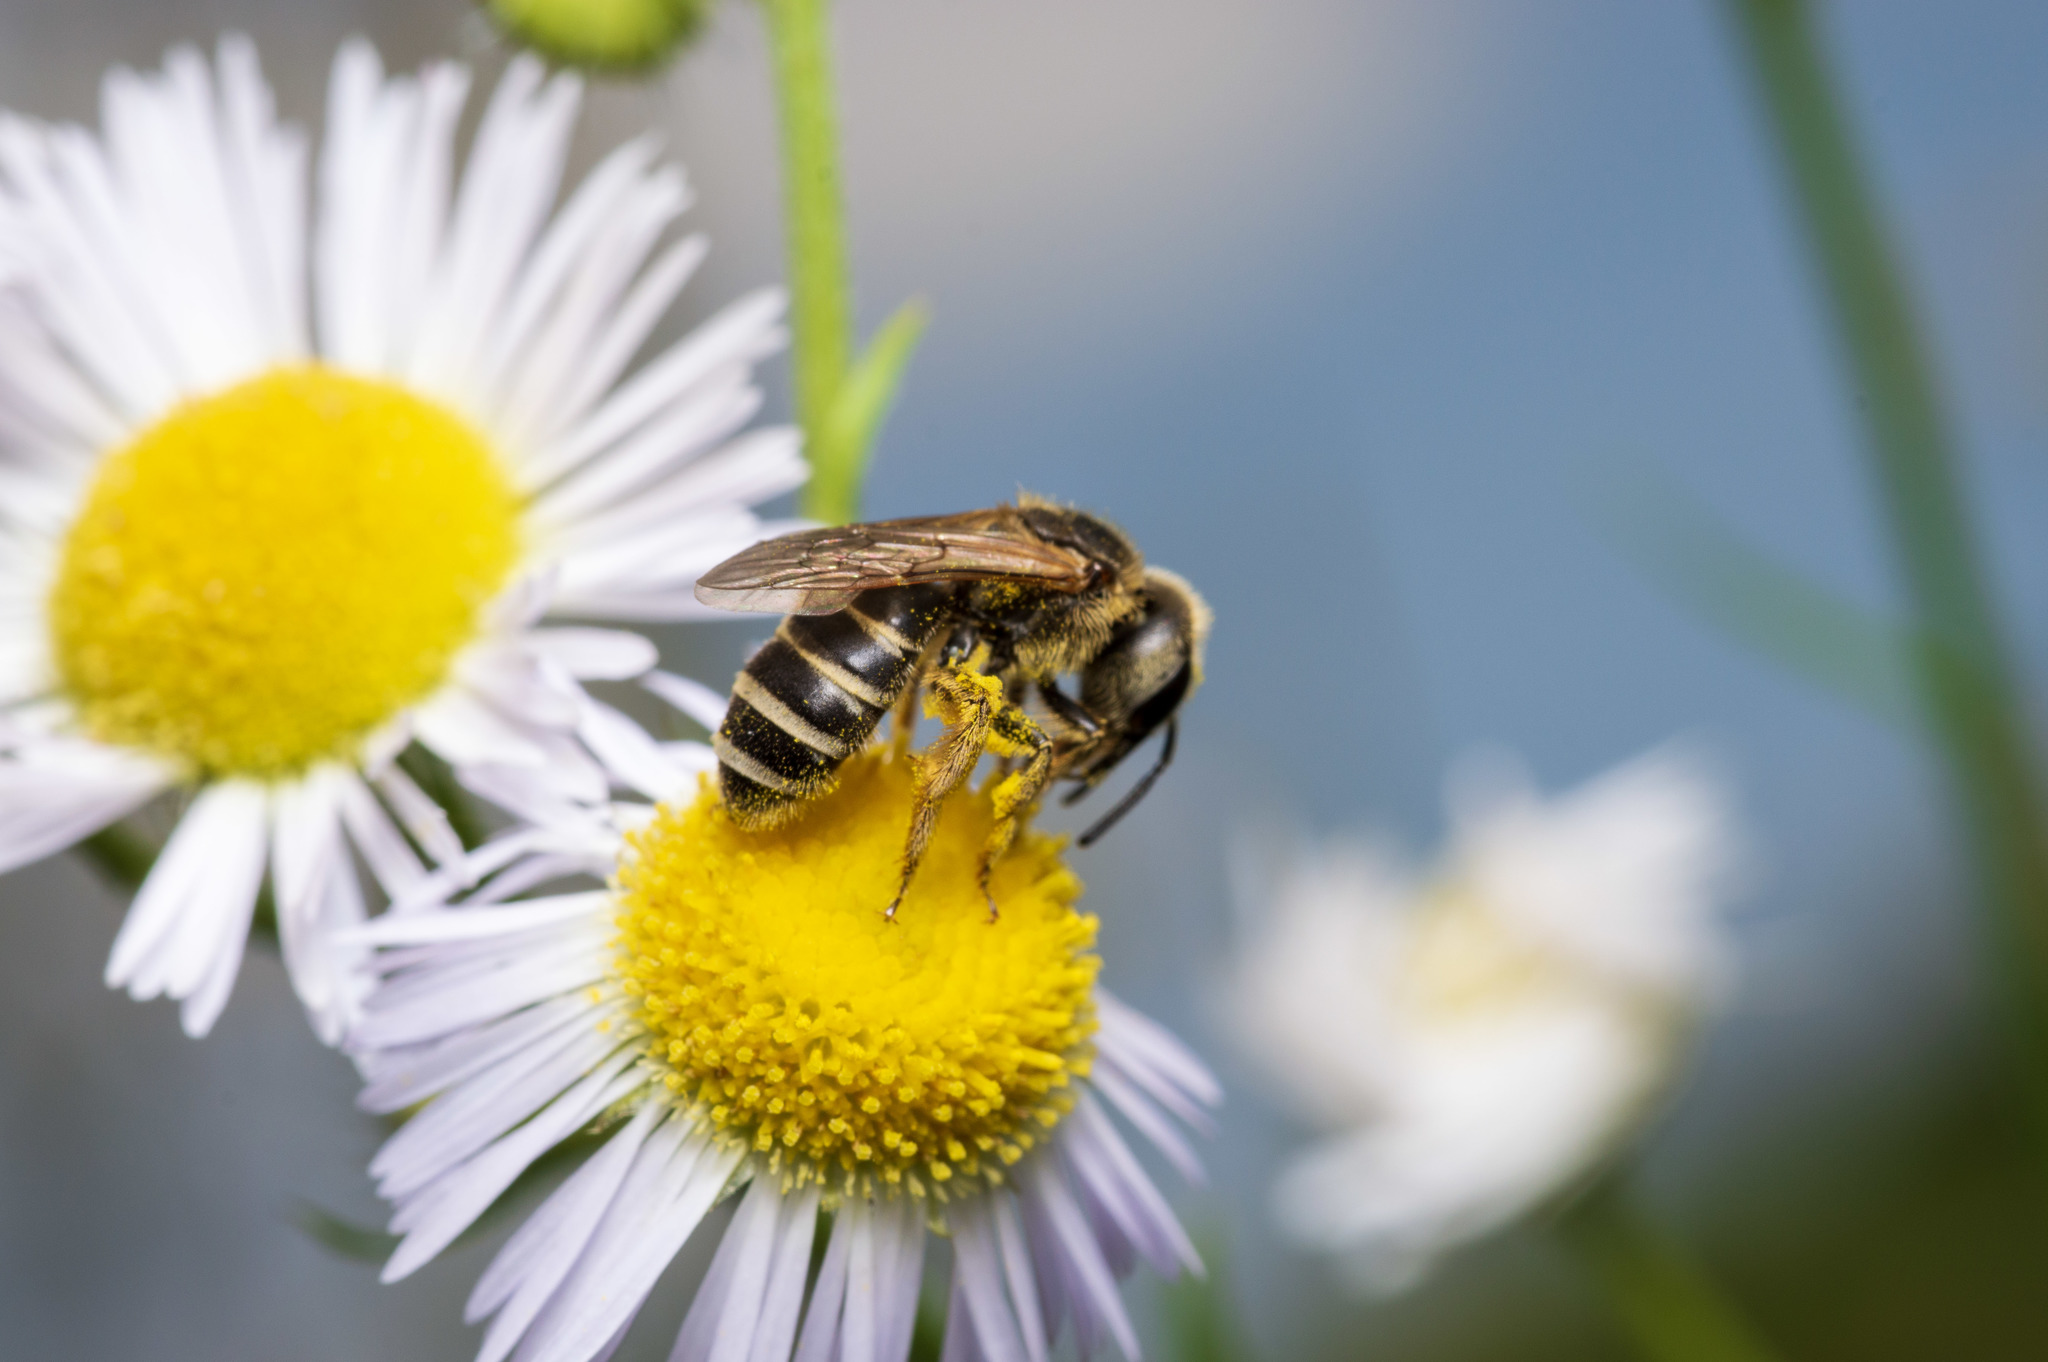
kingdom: Animalia
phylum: Arthropoda
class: Insecta
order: Hymenoptera
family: Halictidae
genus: Halictus
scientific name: Halictus ligatus
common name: Ligated furrow bee
